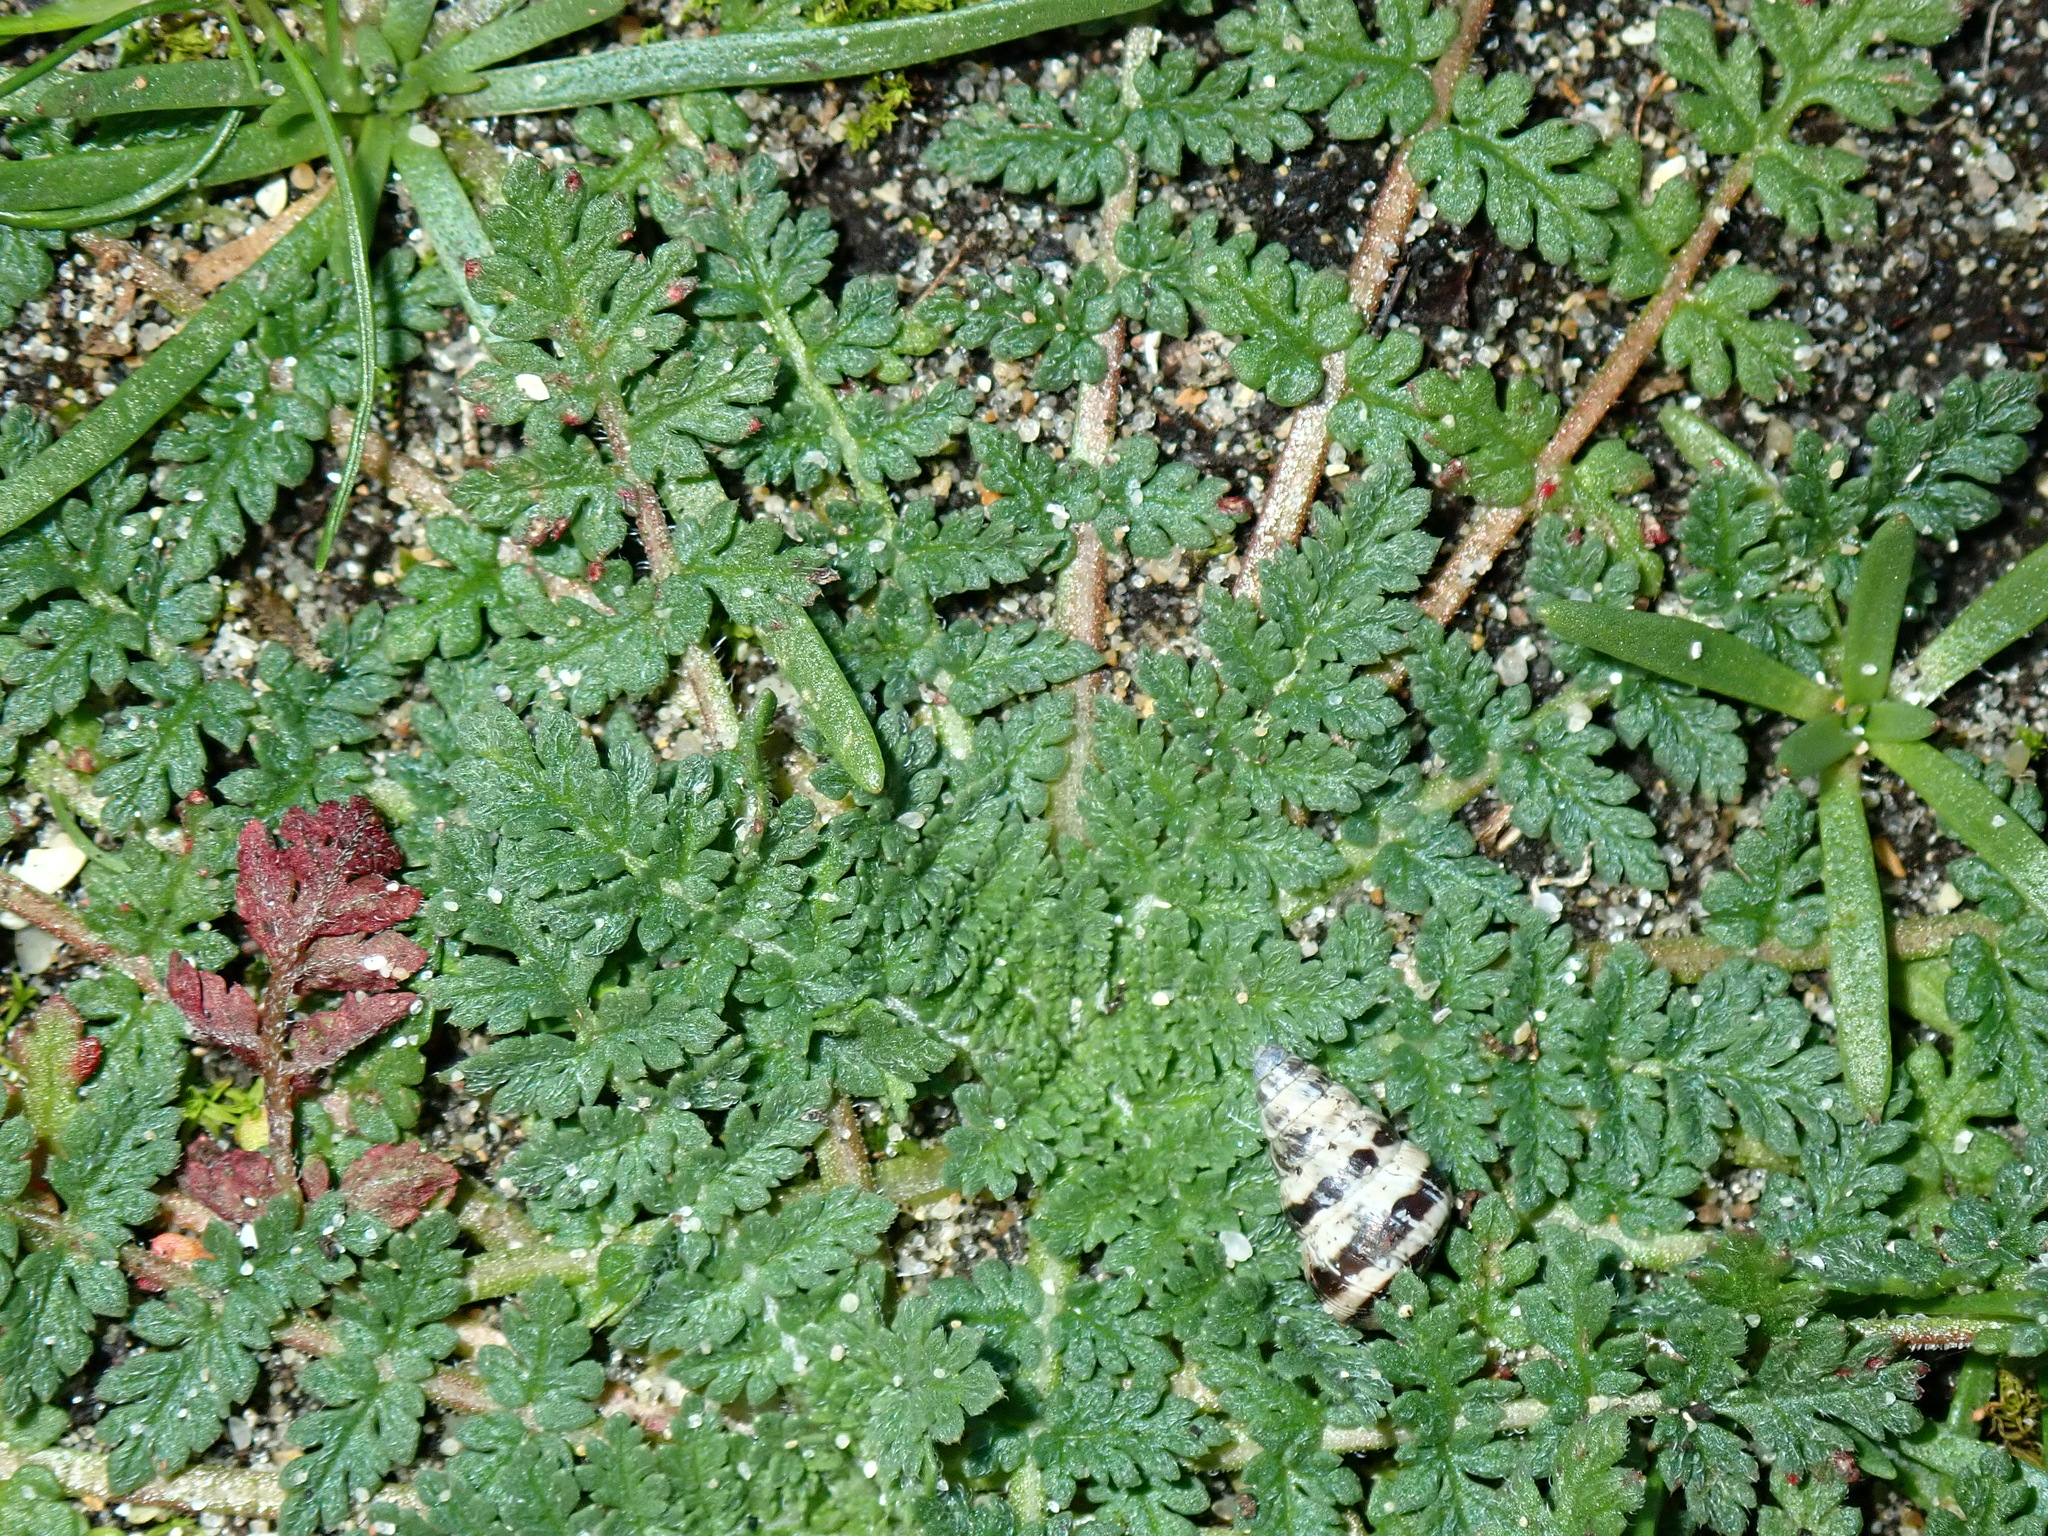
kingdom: Plantae
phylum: Tracheophyta
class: Magnoliopsida
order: Geraniales
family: Geraniaceae
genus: Erodium
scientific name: Erodium cicutarium
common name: Common stork's-bill
